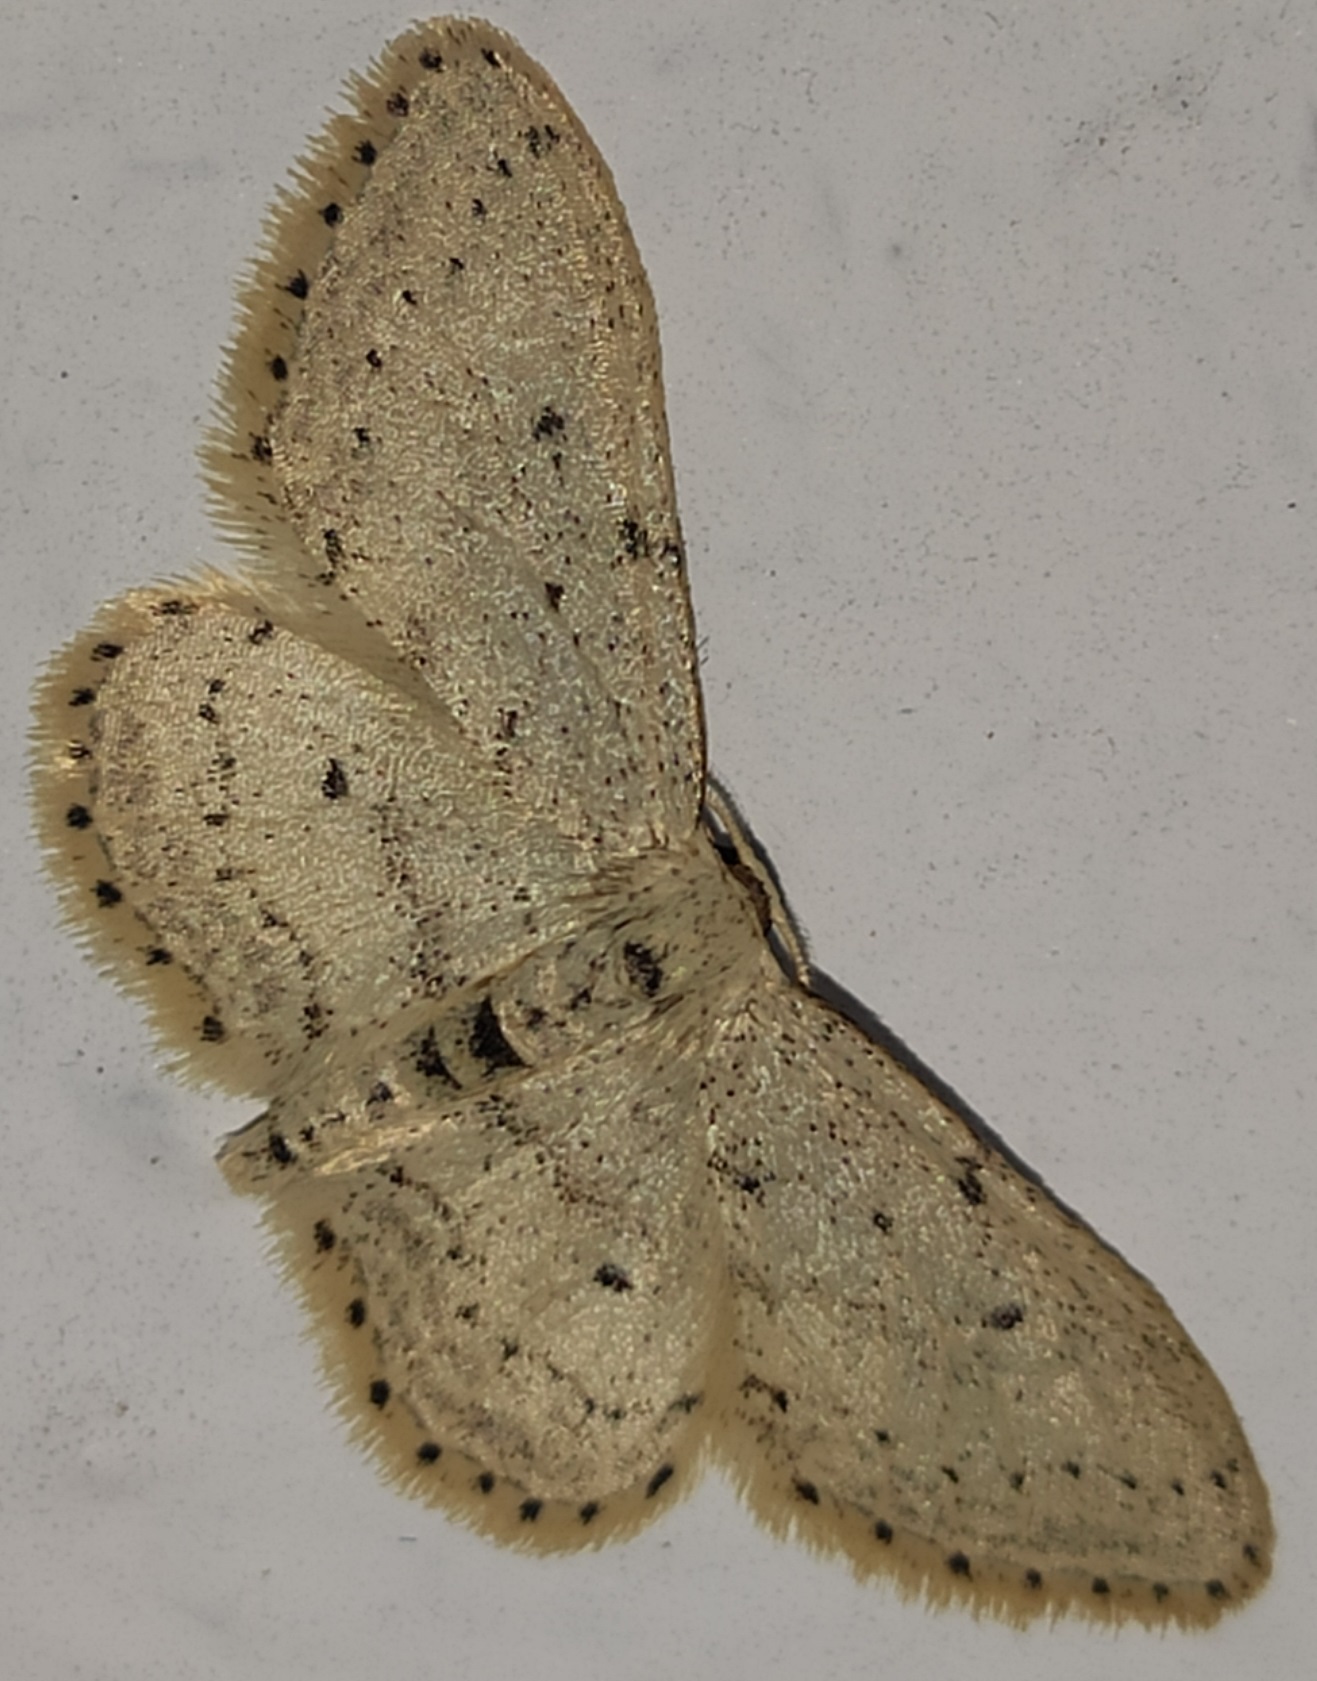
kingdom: Animalia
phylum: Arthropoda
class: Insecta
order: Lepidoptera
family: Geometridae
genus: Idaea
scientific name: Idaea seriata
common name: Small dusty wave
